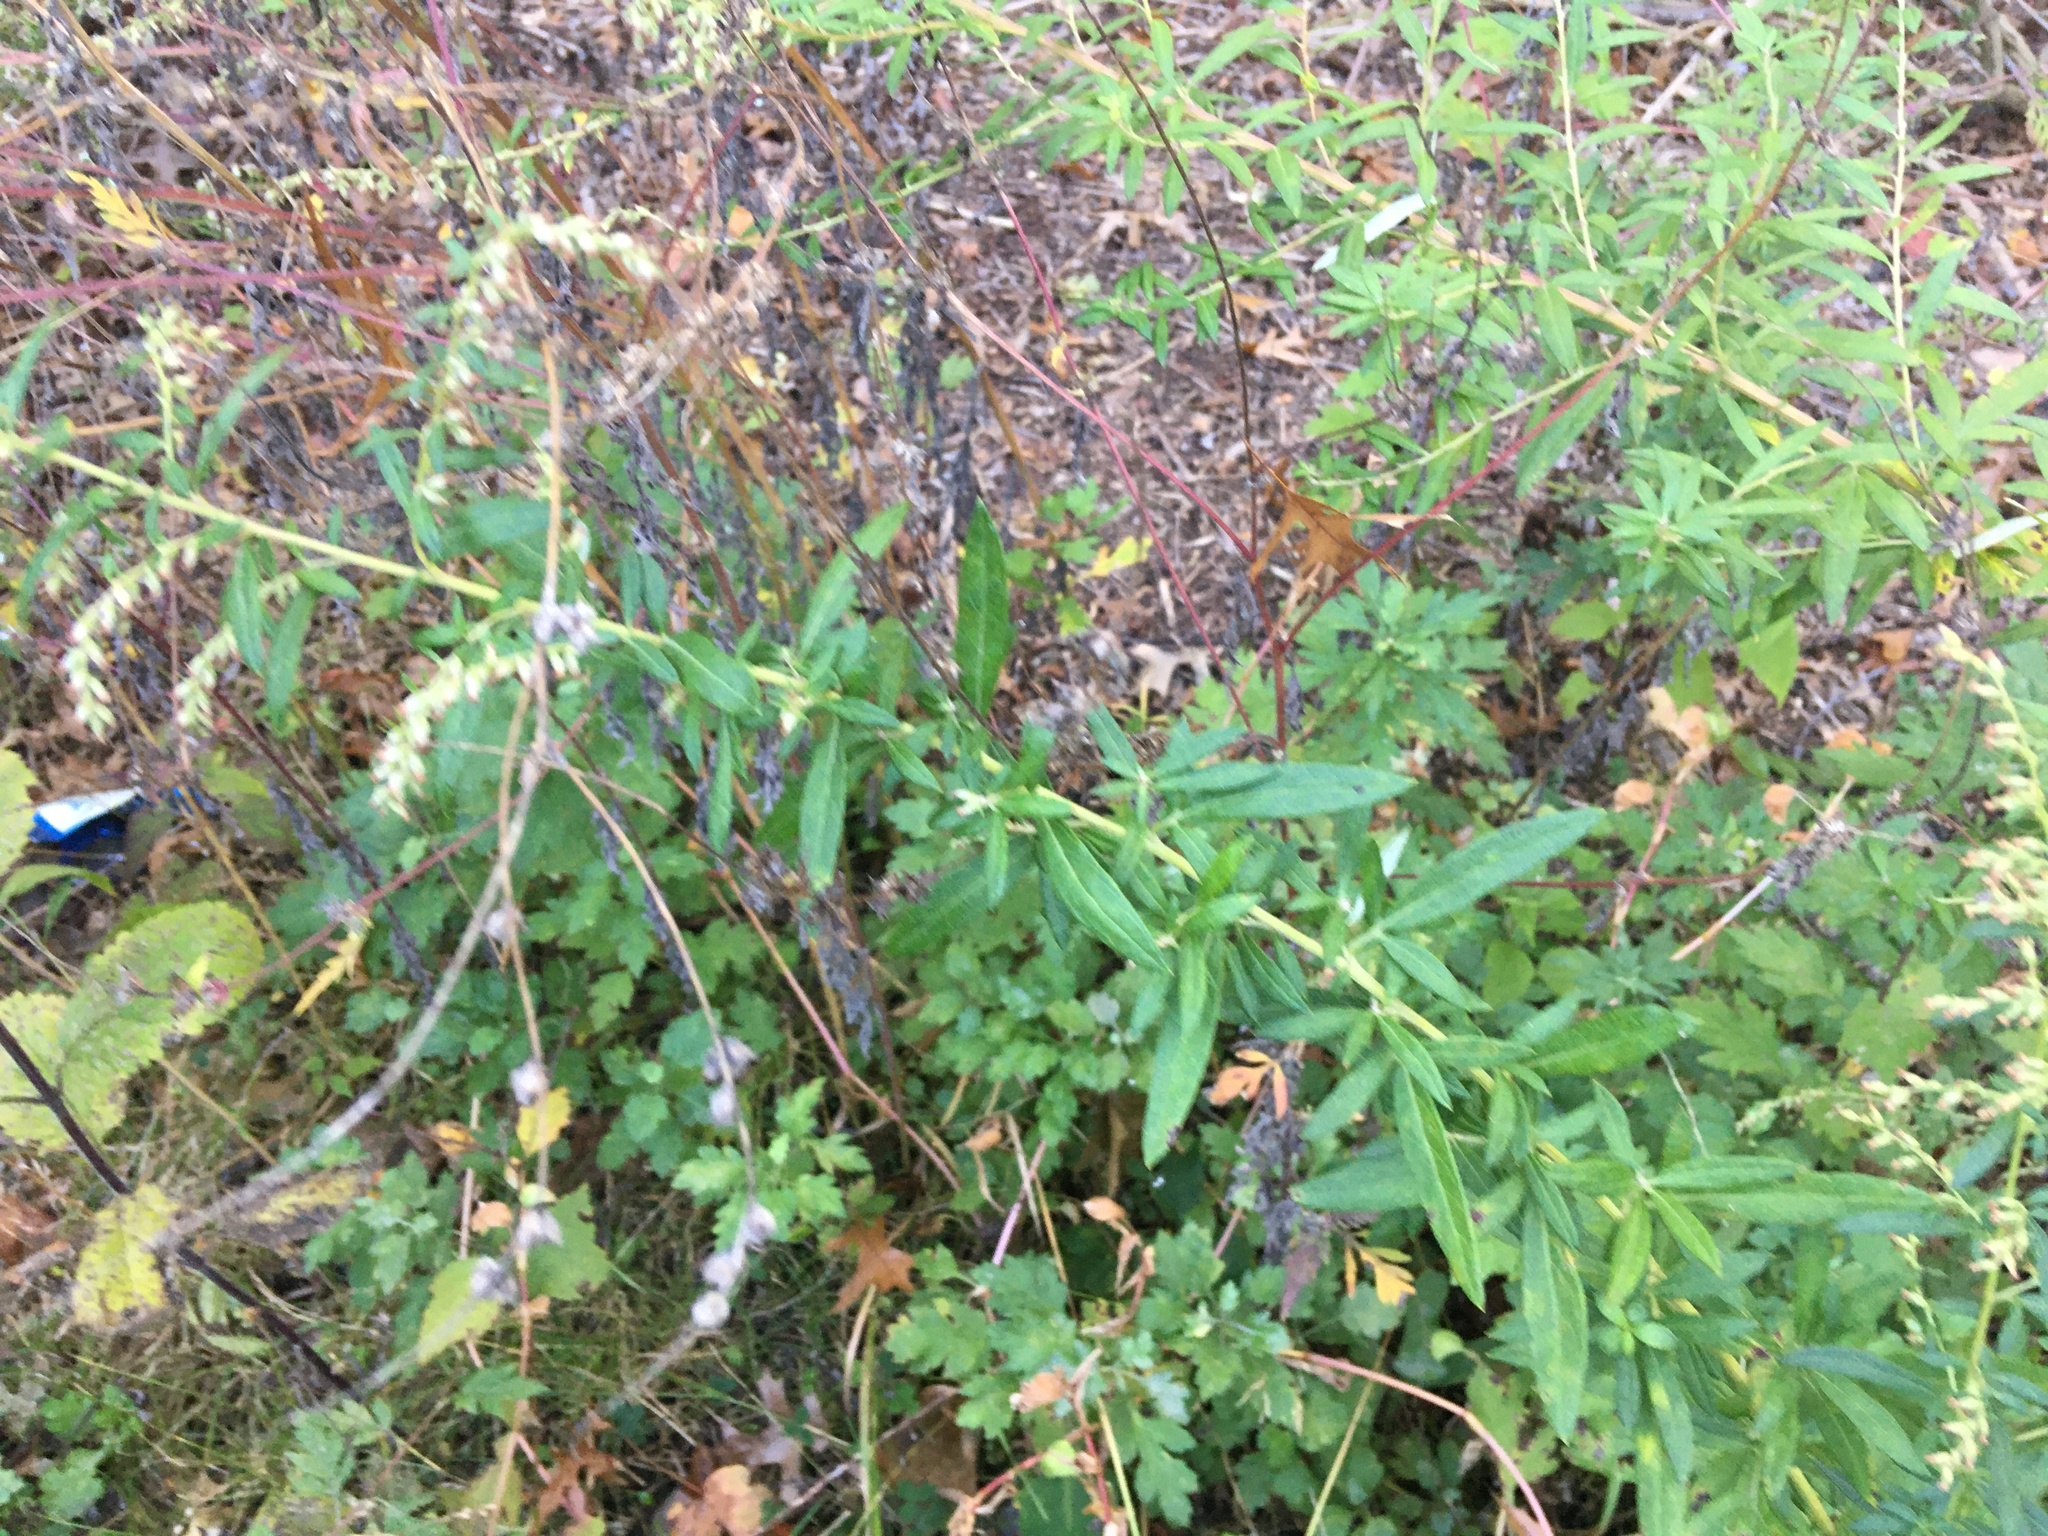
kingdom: Plantae
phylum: Tracheophyta
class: Magnoliopsida
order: Asterales
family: Asteraceae
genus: Artemisia
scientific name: Artemisia vulgaris
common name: Mugwort
